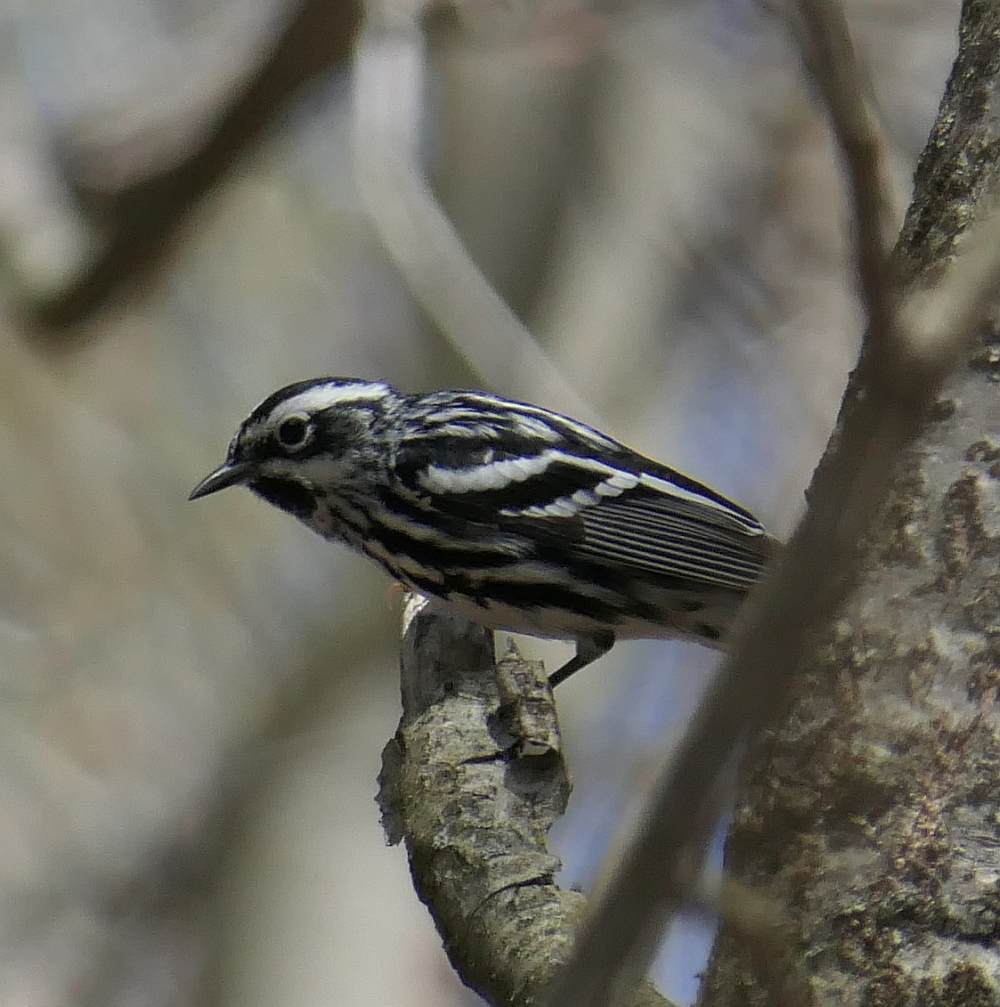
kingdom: Animalia
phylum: Chordata
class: Aves
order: Passeriformes
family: Parulidae
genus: Mniotilta
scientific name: Mniotilta varia
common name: Black-and-white warbler
